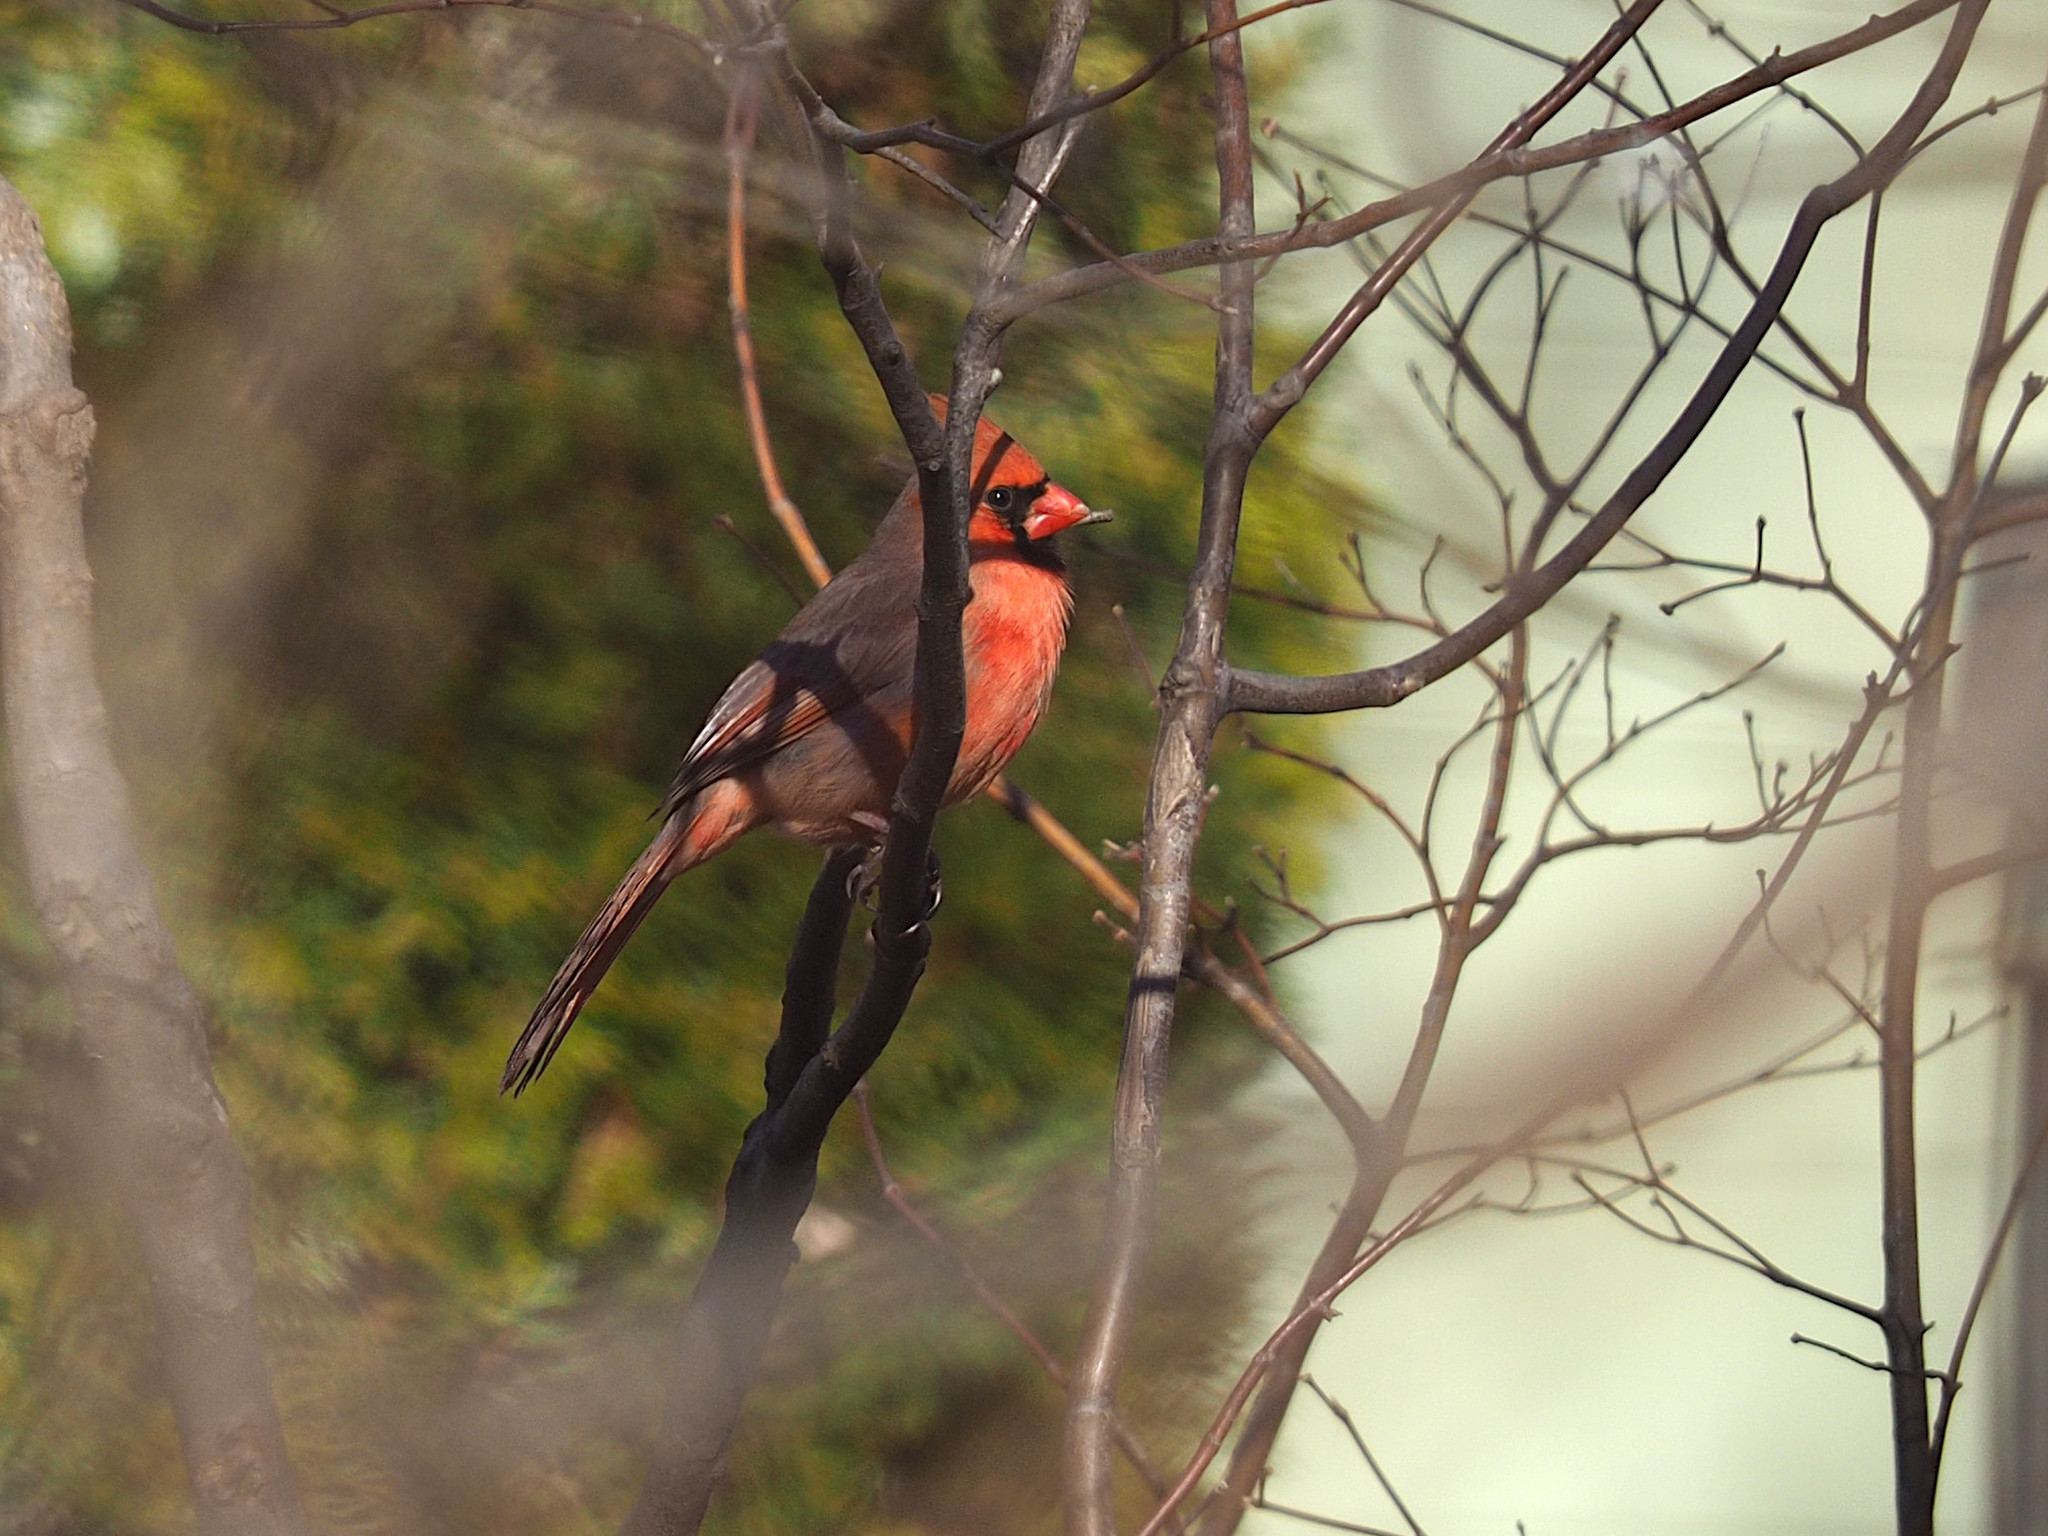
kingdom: Animalia
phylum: Chordata
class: Aves
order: Passeriformes
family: Cardinalidae
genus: Cardinalis
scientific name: Cardinalis cardinalis
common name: Northern cardinal
